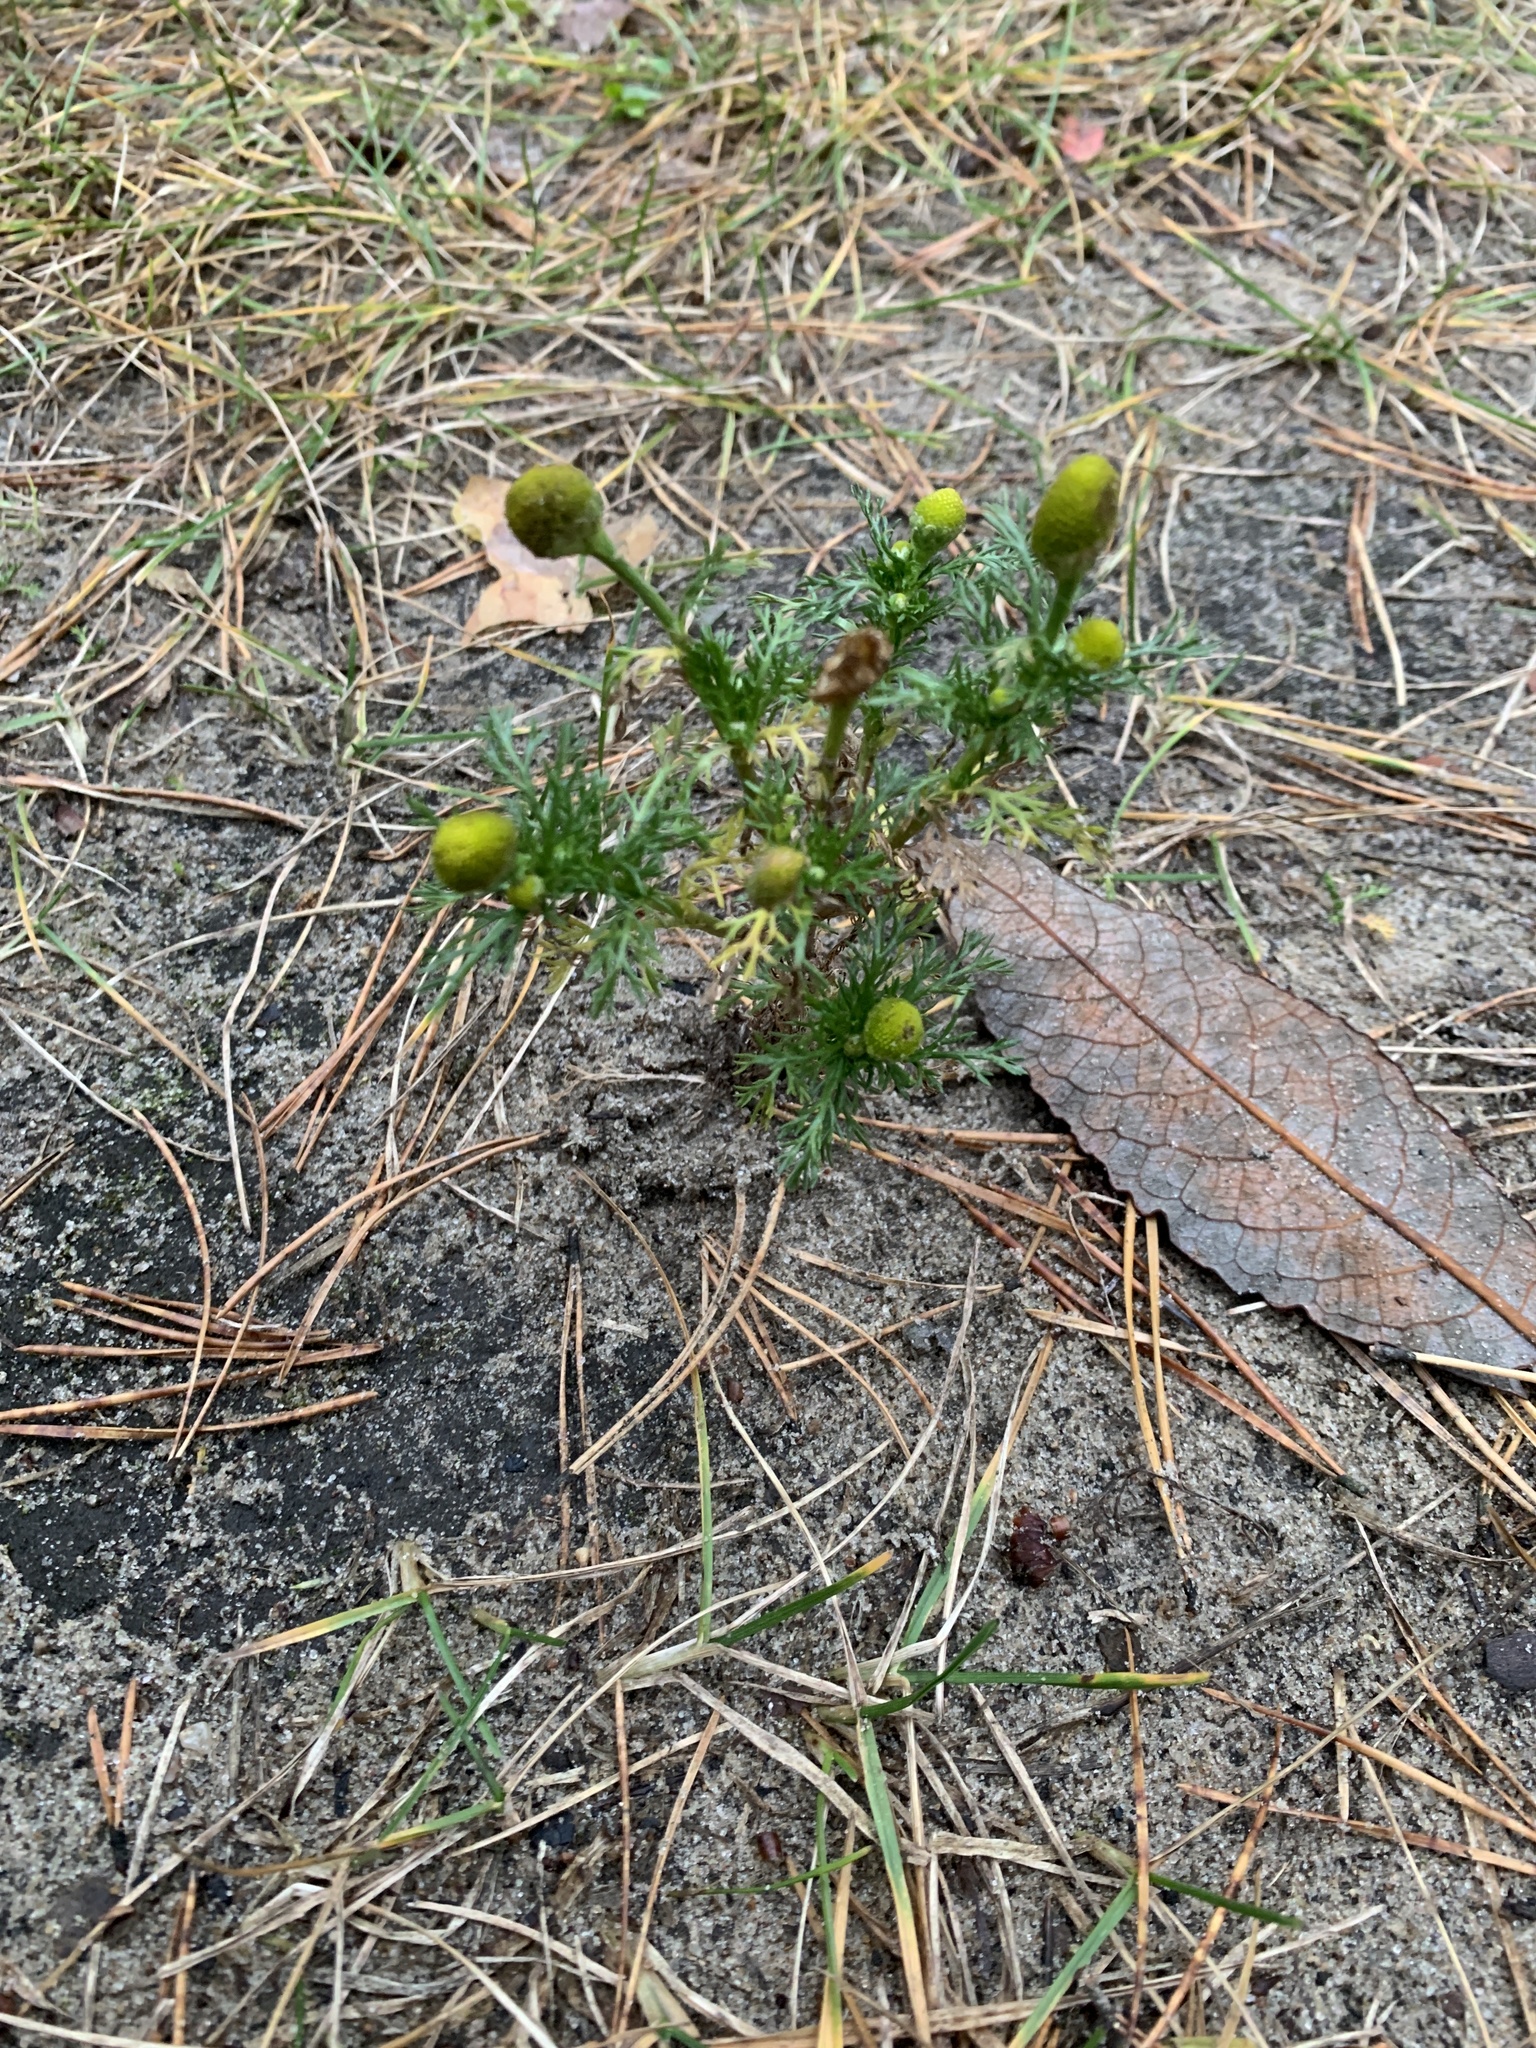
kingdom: Plantae
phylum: Tracheophyta
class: Magnoliopsida
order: Asterales
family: Asteraceae
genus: Matricaria
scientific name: Matricaria discoidea
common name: Disc mayweed
